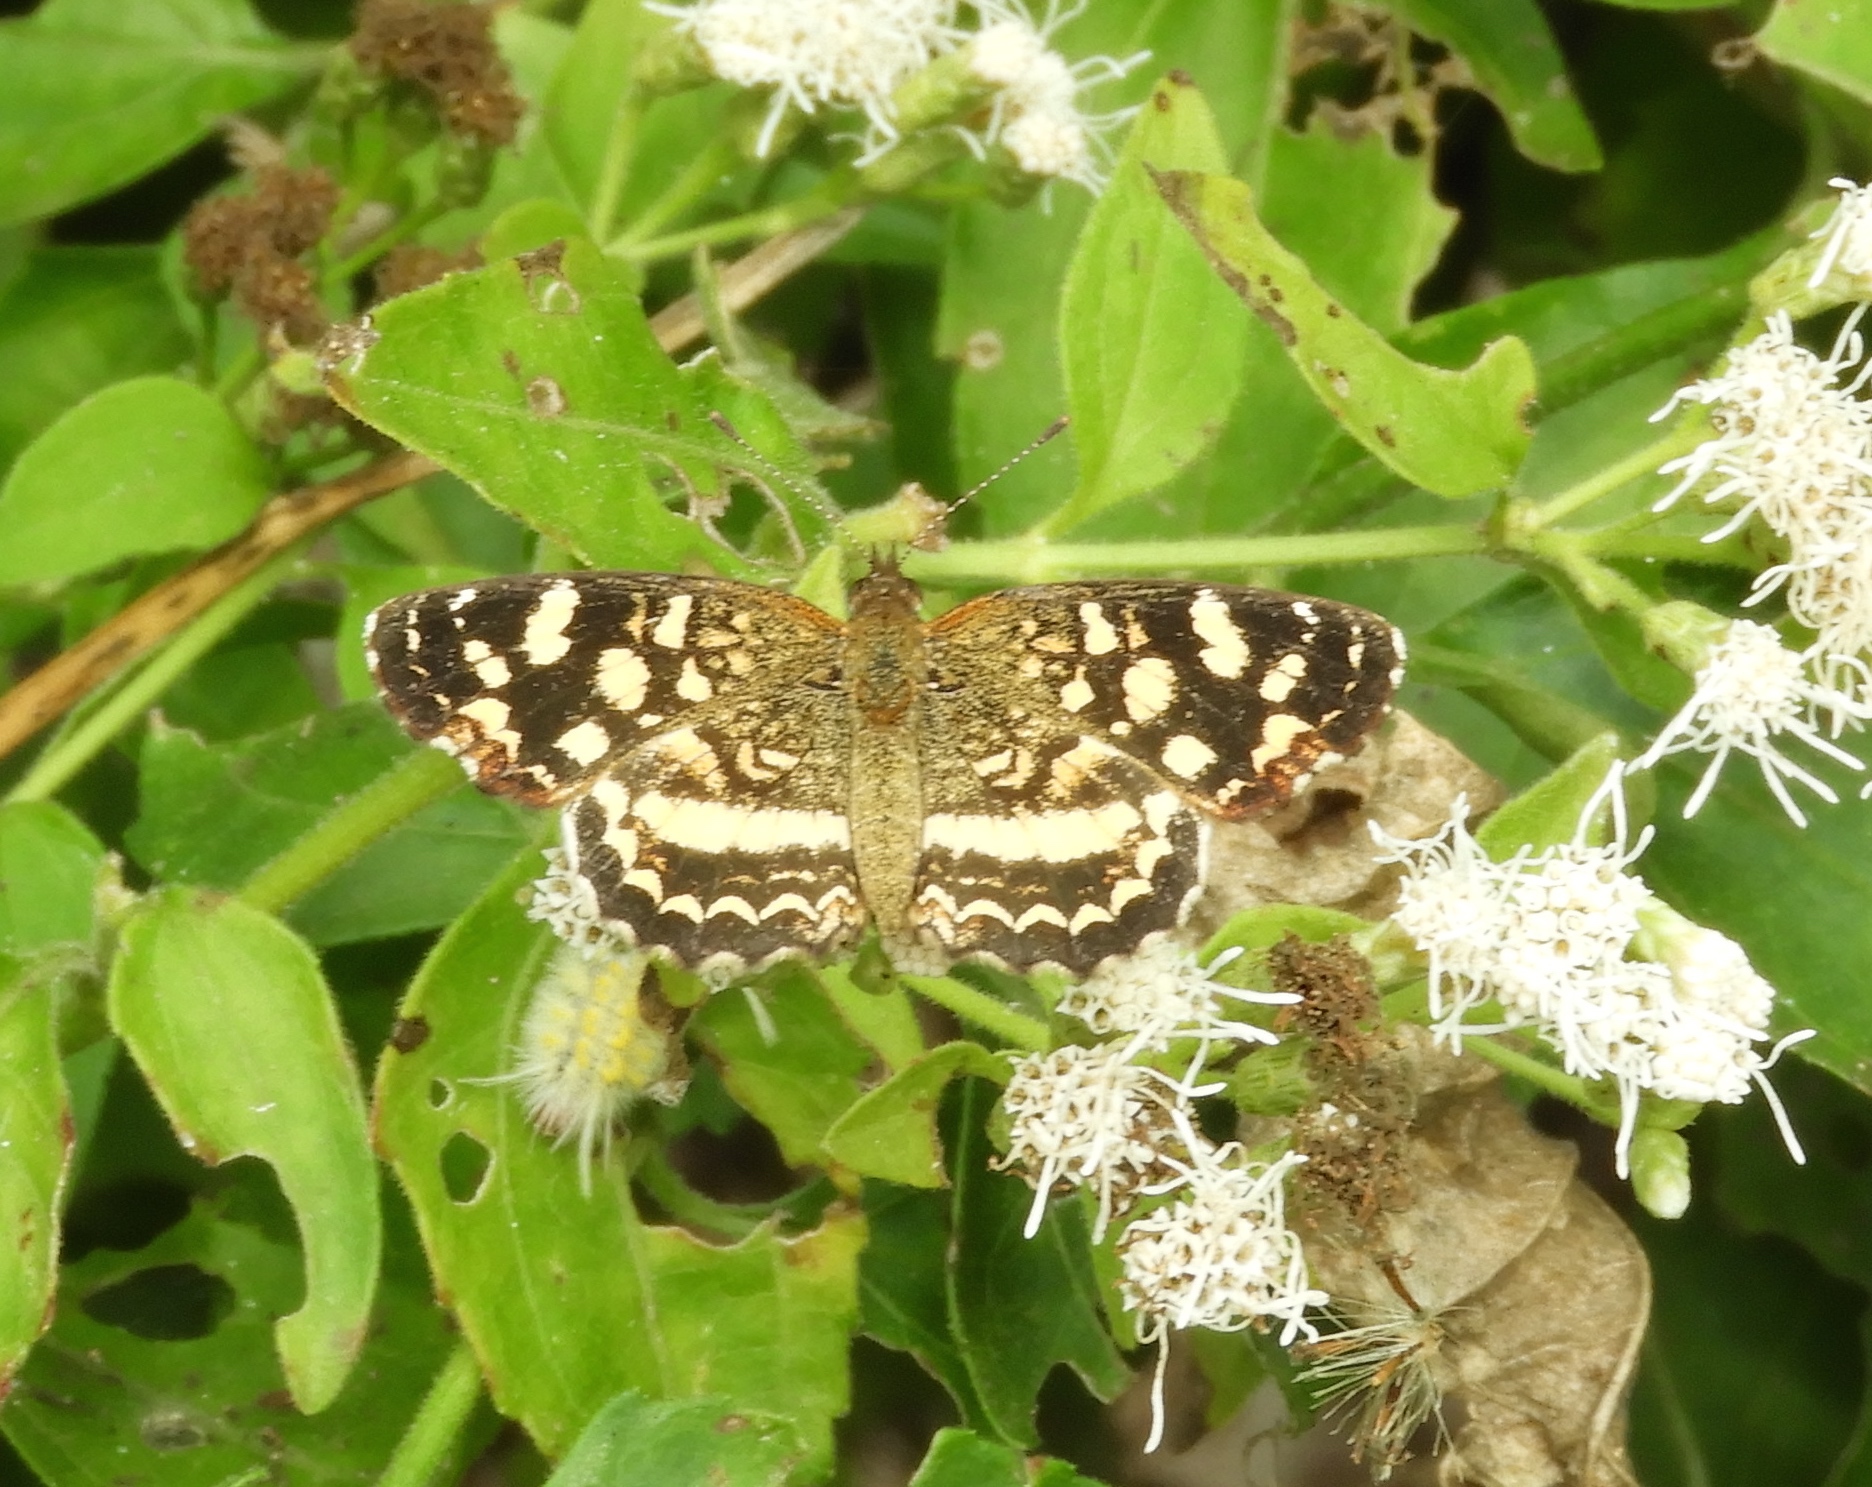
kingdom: Animalia
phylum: Arthropoda
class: Insecta
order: Lepidoptera
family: Nymphalidae
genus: Anthanassa
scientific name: Anthanassa tulcis
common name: Pale-banded crescent
